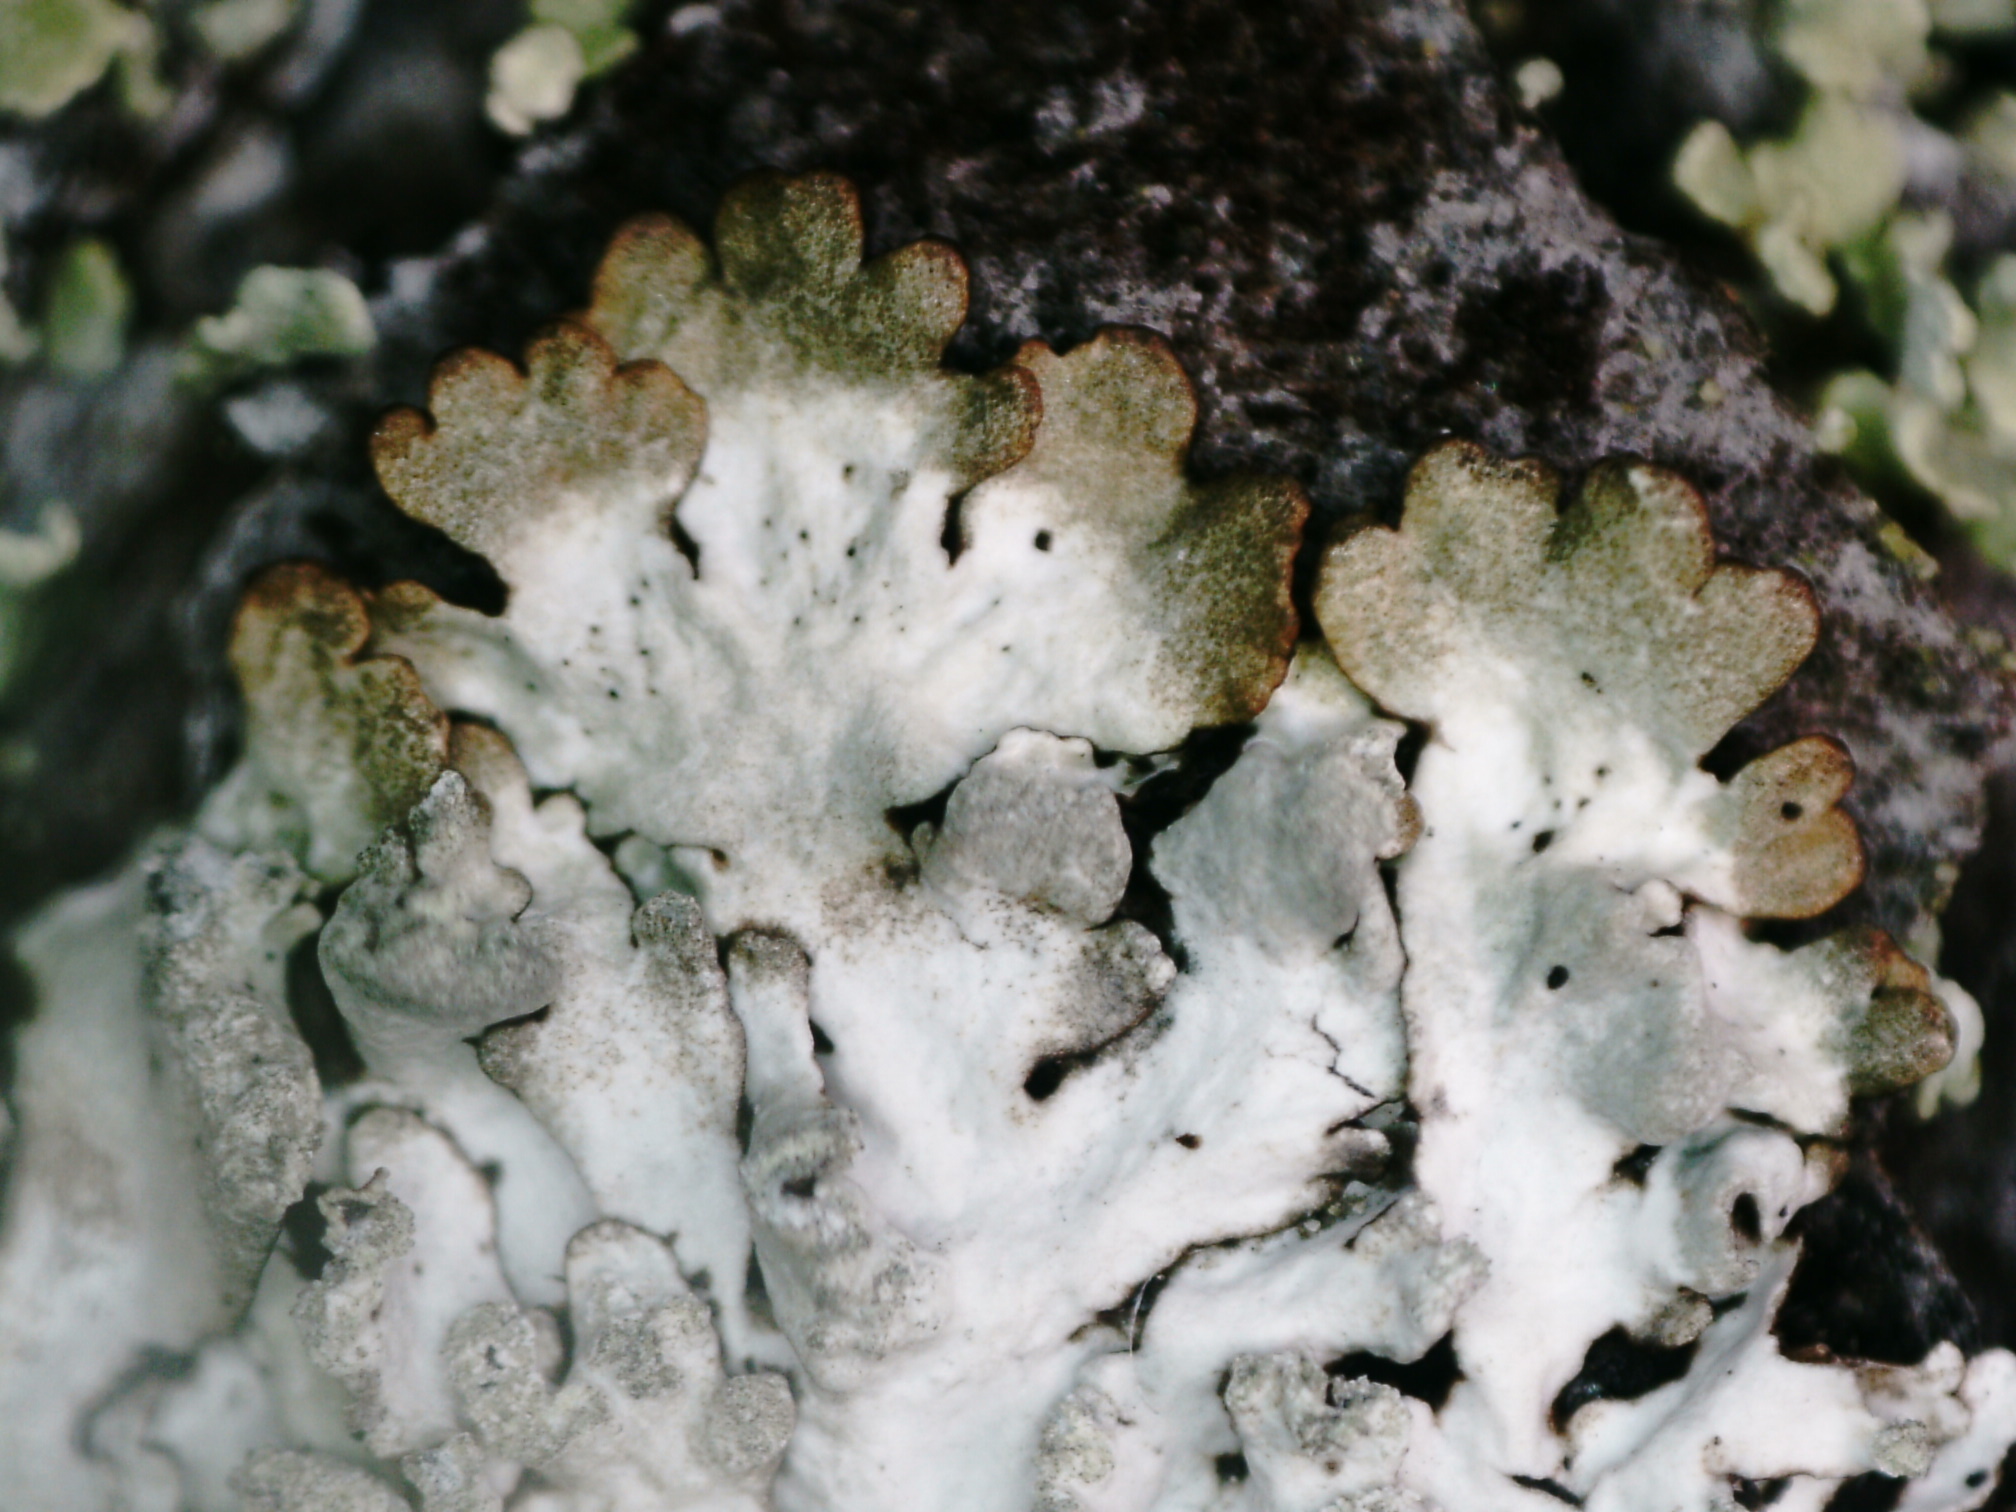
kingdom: Fungi
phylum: Ascomycota
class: Lecanoromycetes
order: Lecanorales
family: Parmeliaceae
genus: Parmeliopsis
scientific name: Parmeliopsis hyperopta
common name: Grey starburst lichen
